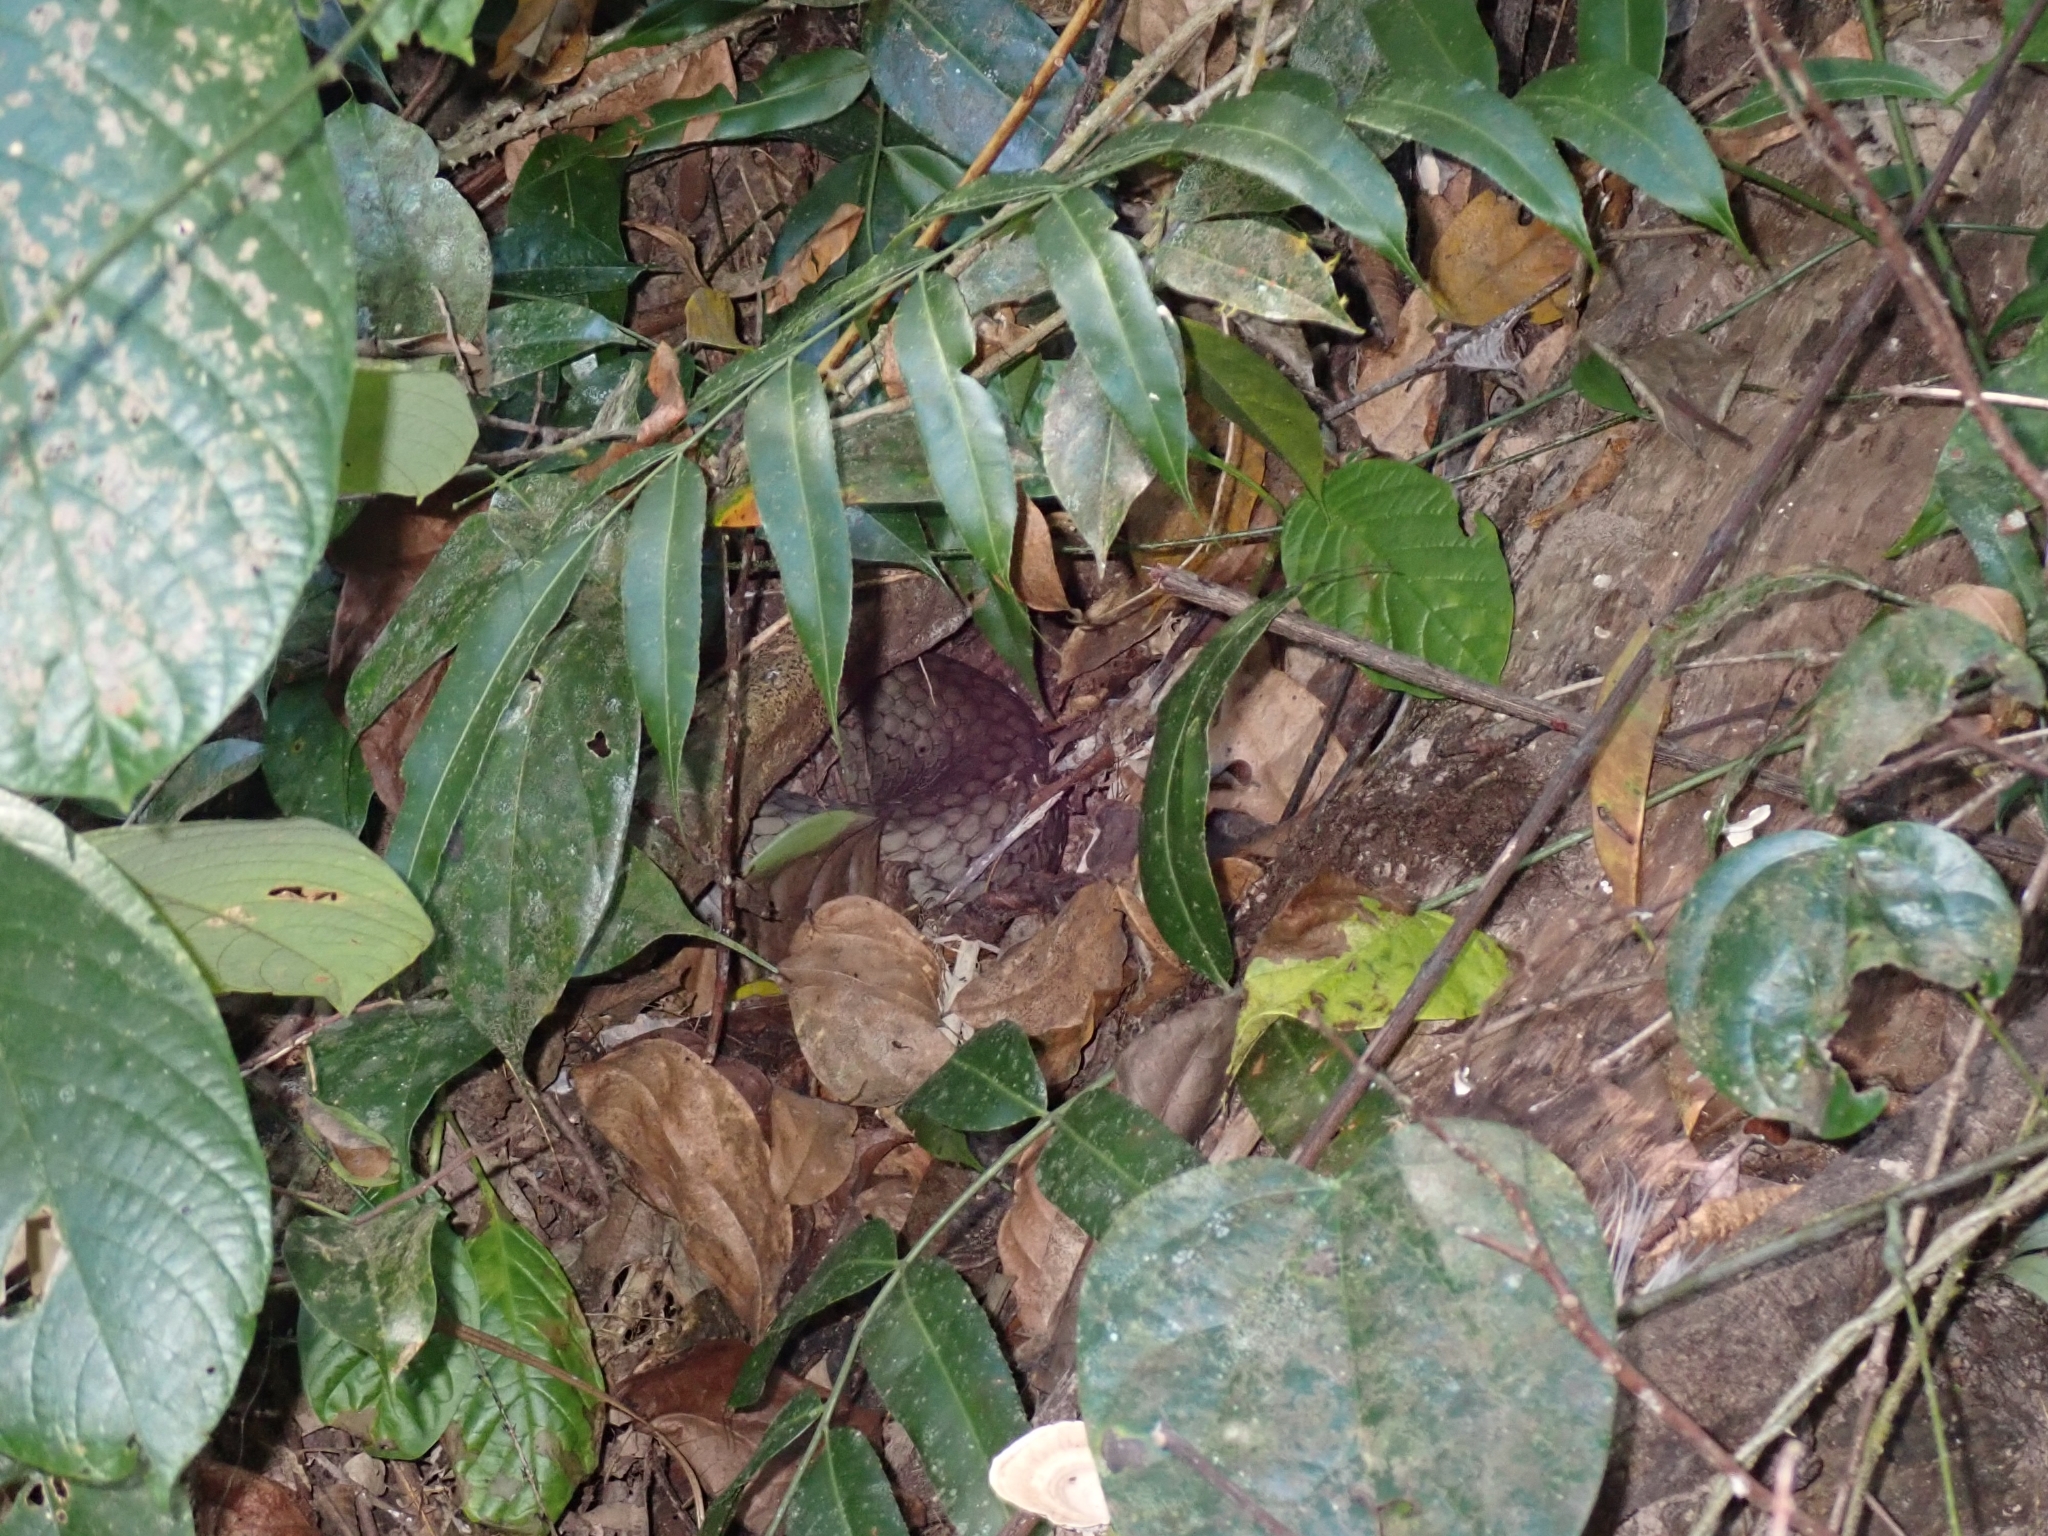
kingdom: Animalia
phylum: Chordata
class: Squamata
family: Elapidae
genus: Ophiophagus
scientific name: Ophiophagus hannah
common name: Hamadryad
